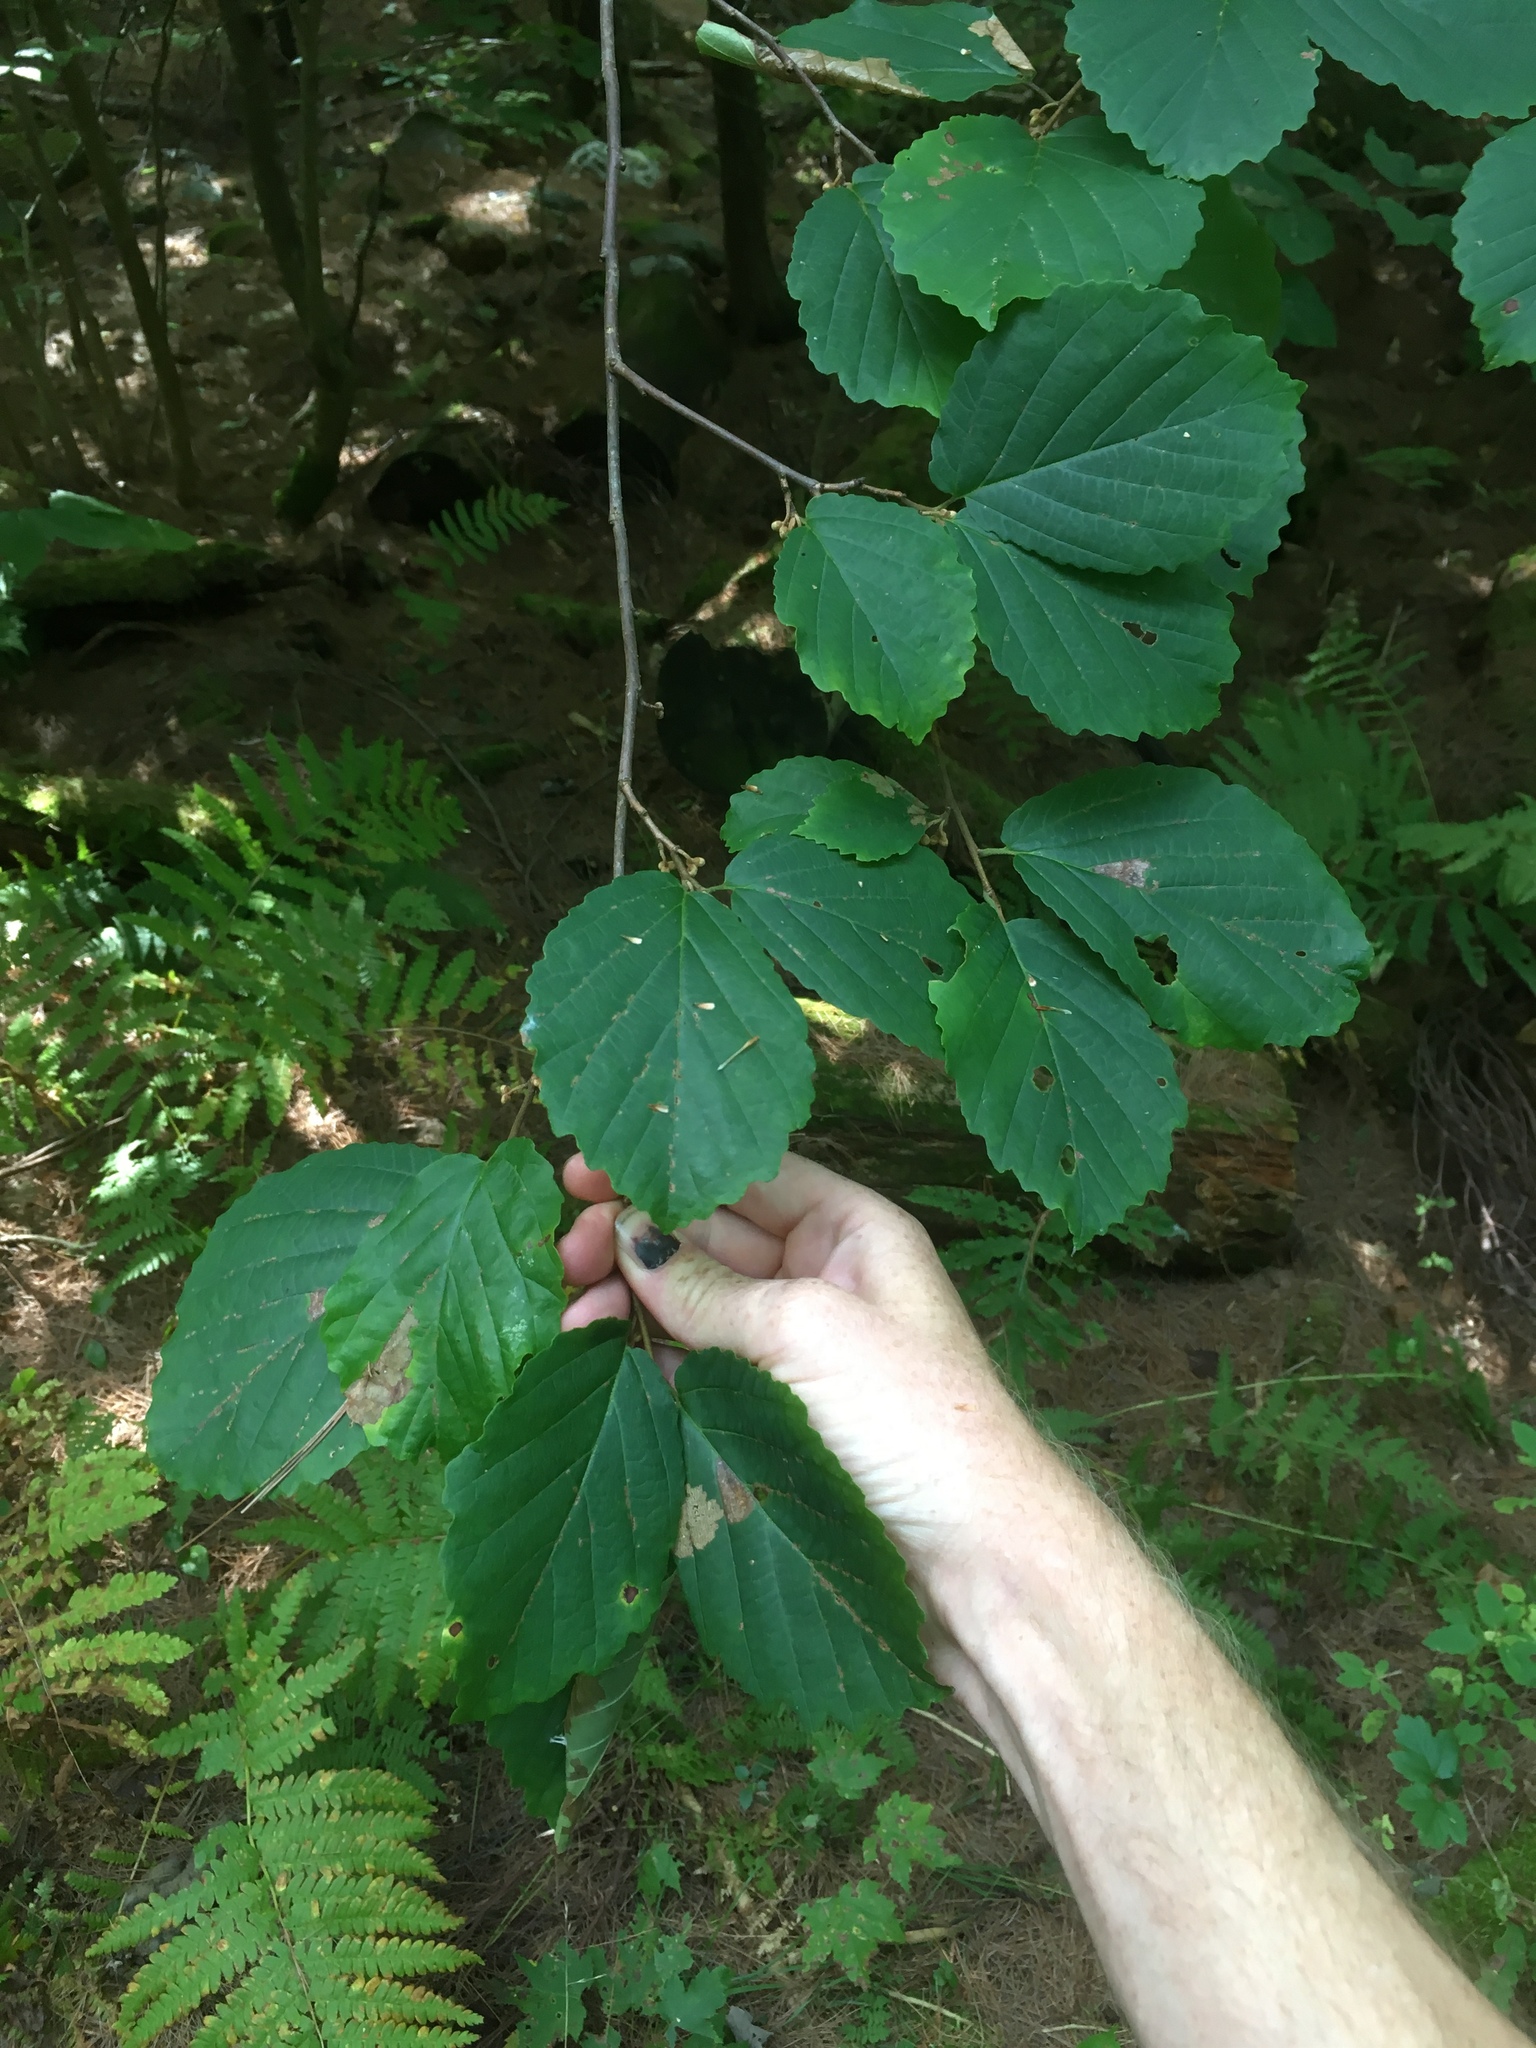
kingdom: Plantae
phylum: Tracheophyta
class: Magnoliopsida
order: Saxifragales
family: Hamamelidaceae
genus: Hamamelis
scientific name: Hamamelis virginiana
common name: Witch-hazel
